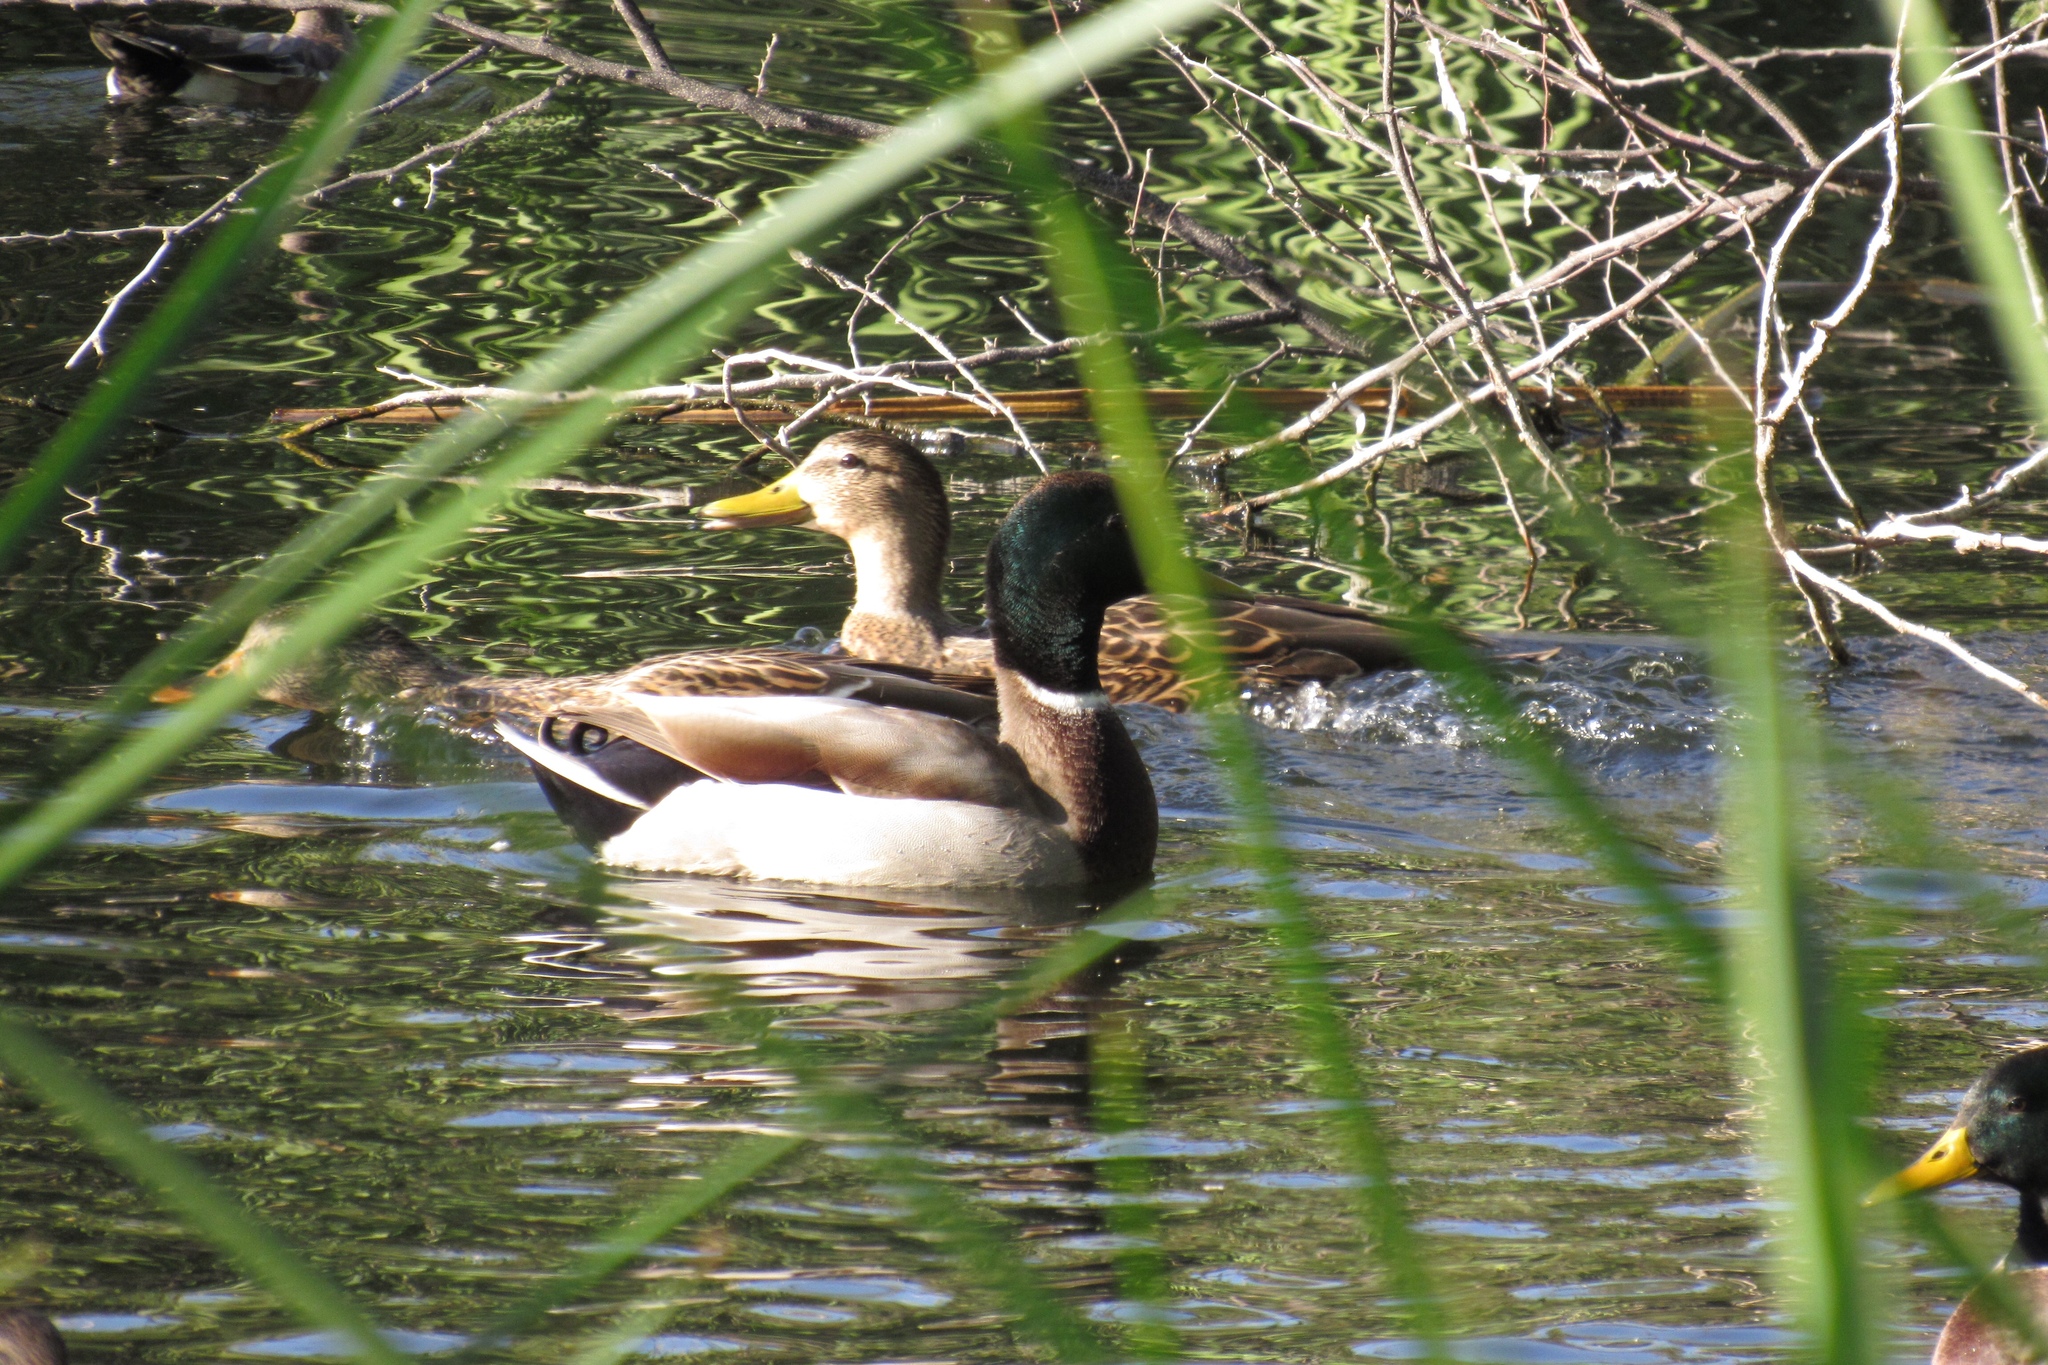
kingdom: Animalia
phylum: Chordata
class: Aves
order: Anseriformes
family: Anatidae
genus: Anas
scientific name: Anas platyrhynchos
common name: Mallard
